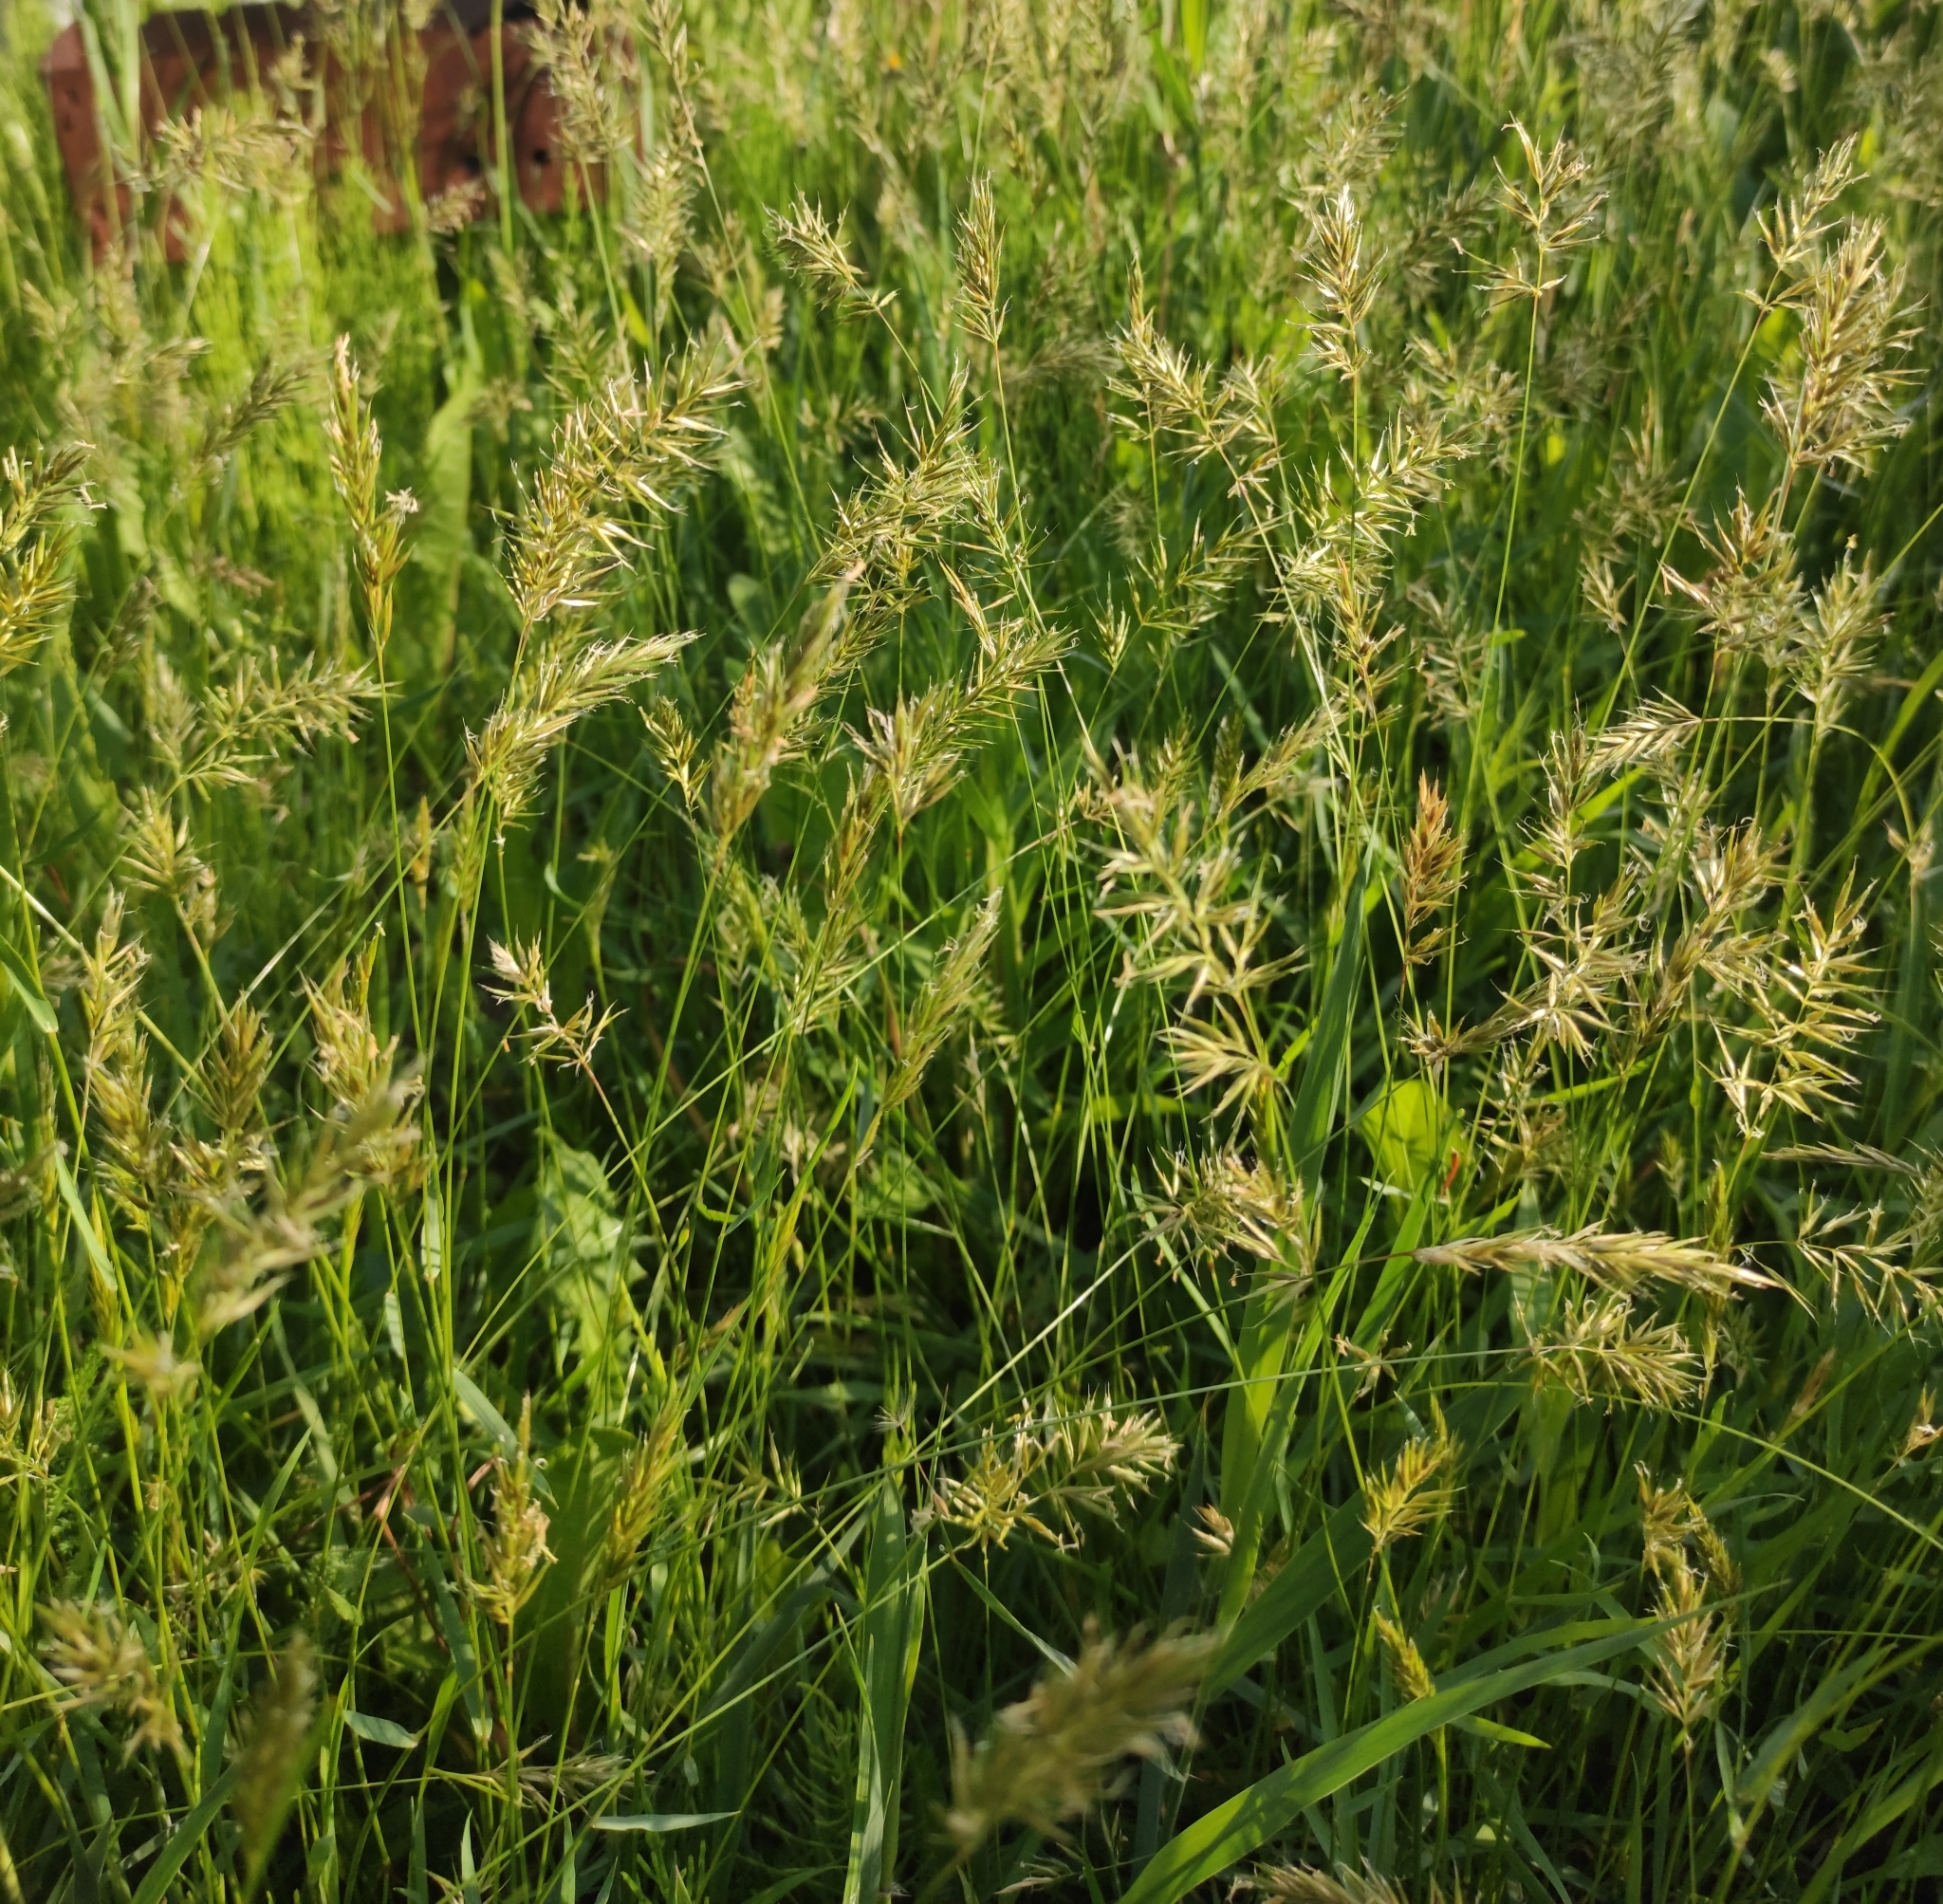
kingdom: Plantae
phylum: Tracheophyta
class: Liliopsida
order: Poales
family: Poaceae
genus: Anthoxanthum
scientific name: Anthoxanthum odoratum
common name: Sweet vernalgrass
